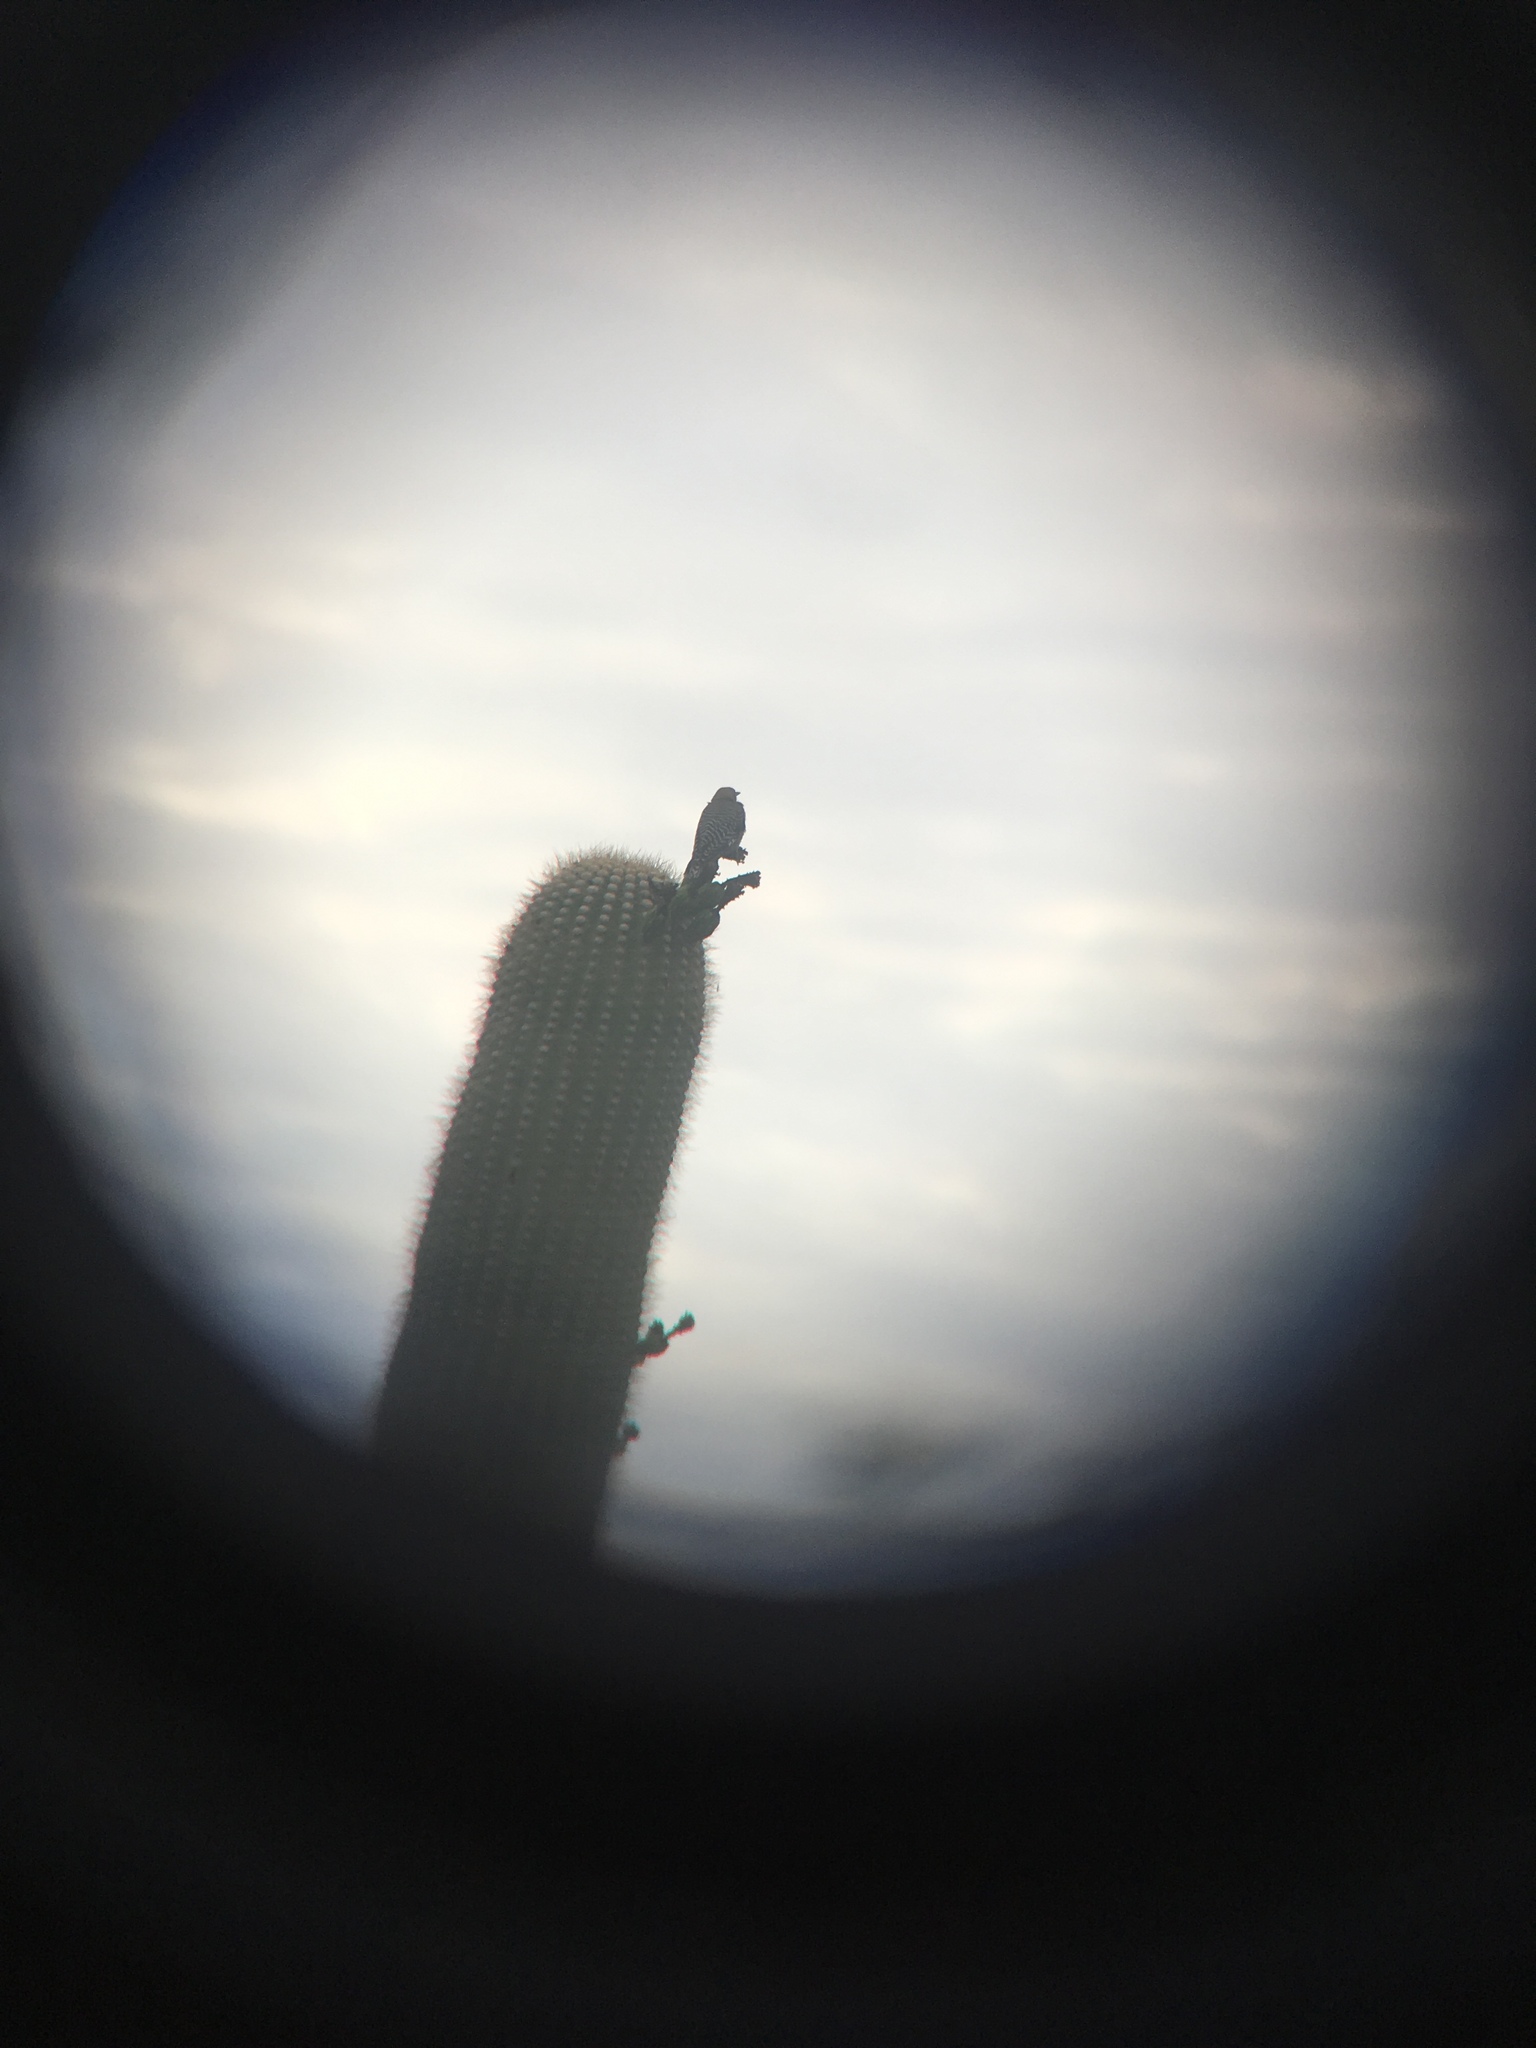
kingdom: Animalia
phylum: Chordata
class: Aves
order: Piciformes
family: Picidae
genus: Melanerpes
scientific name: Melanerpes uropygialis
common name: Gila woodpecker
